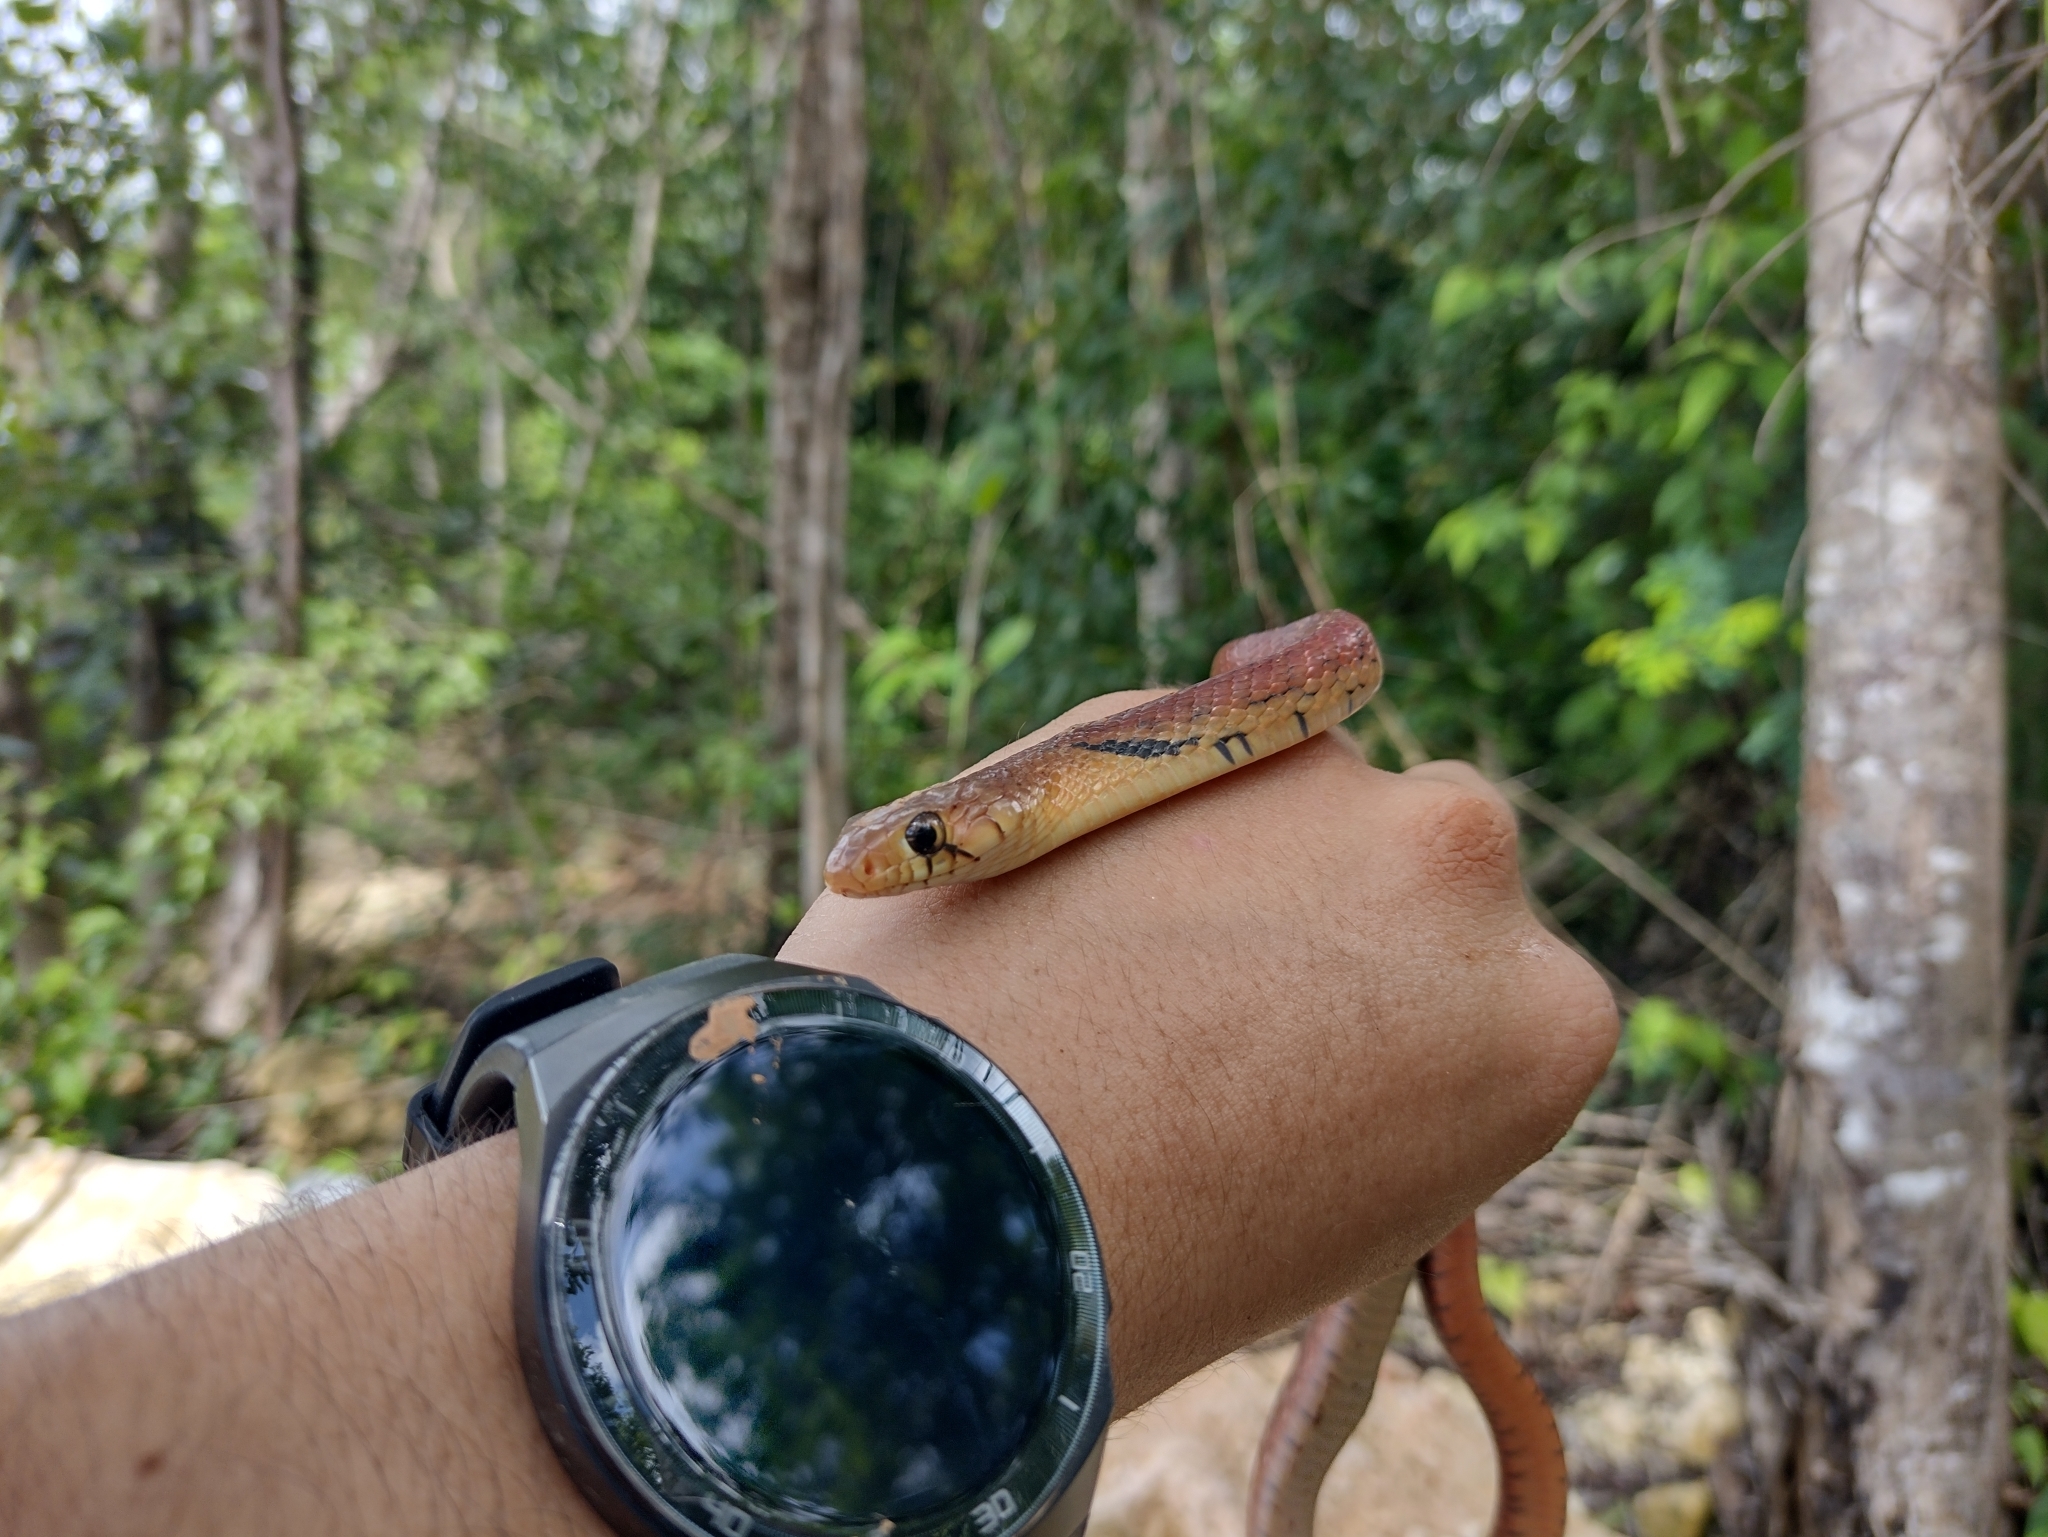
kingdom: Animalia
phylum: Chordata
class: Squamata
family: Colubridae
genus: Drymarchon
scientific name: Drymarchon melanurus
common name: Central american indigo snake
